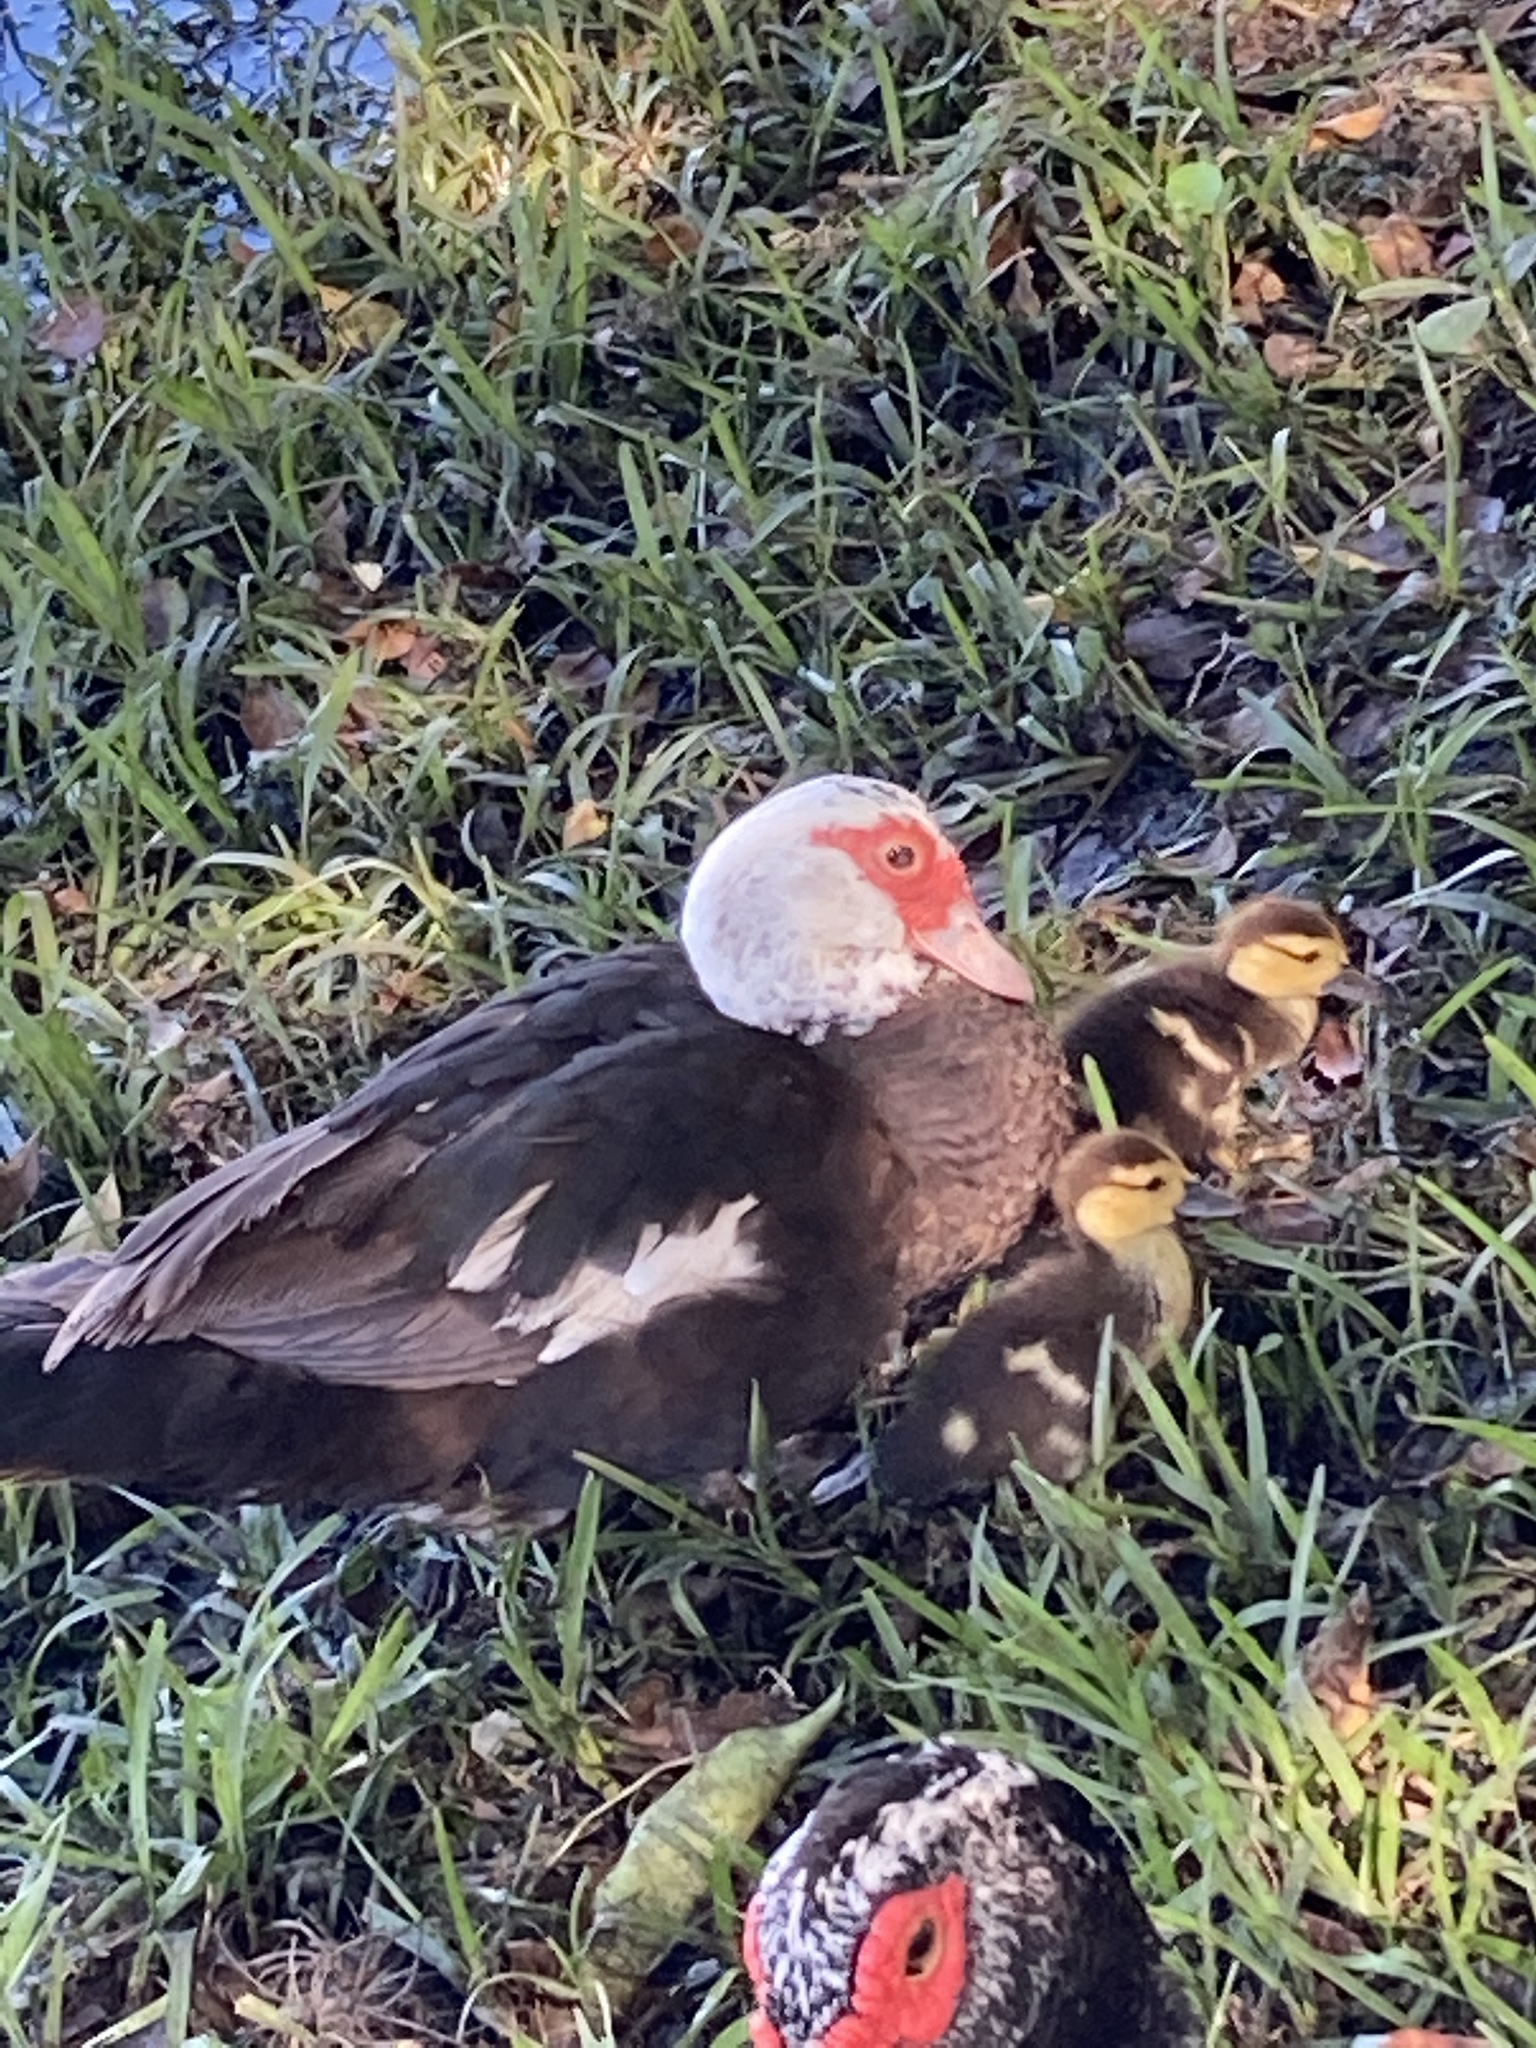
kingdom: Animalia
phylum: Chordata
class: Aves
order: Anseriformes
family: Anatidae
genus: Cairina
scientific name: Cairina moschata
